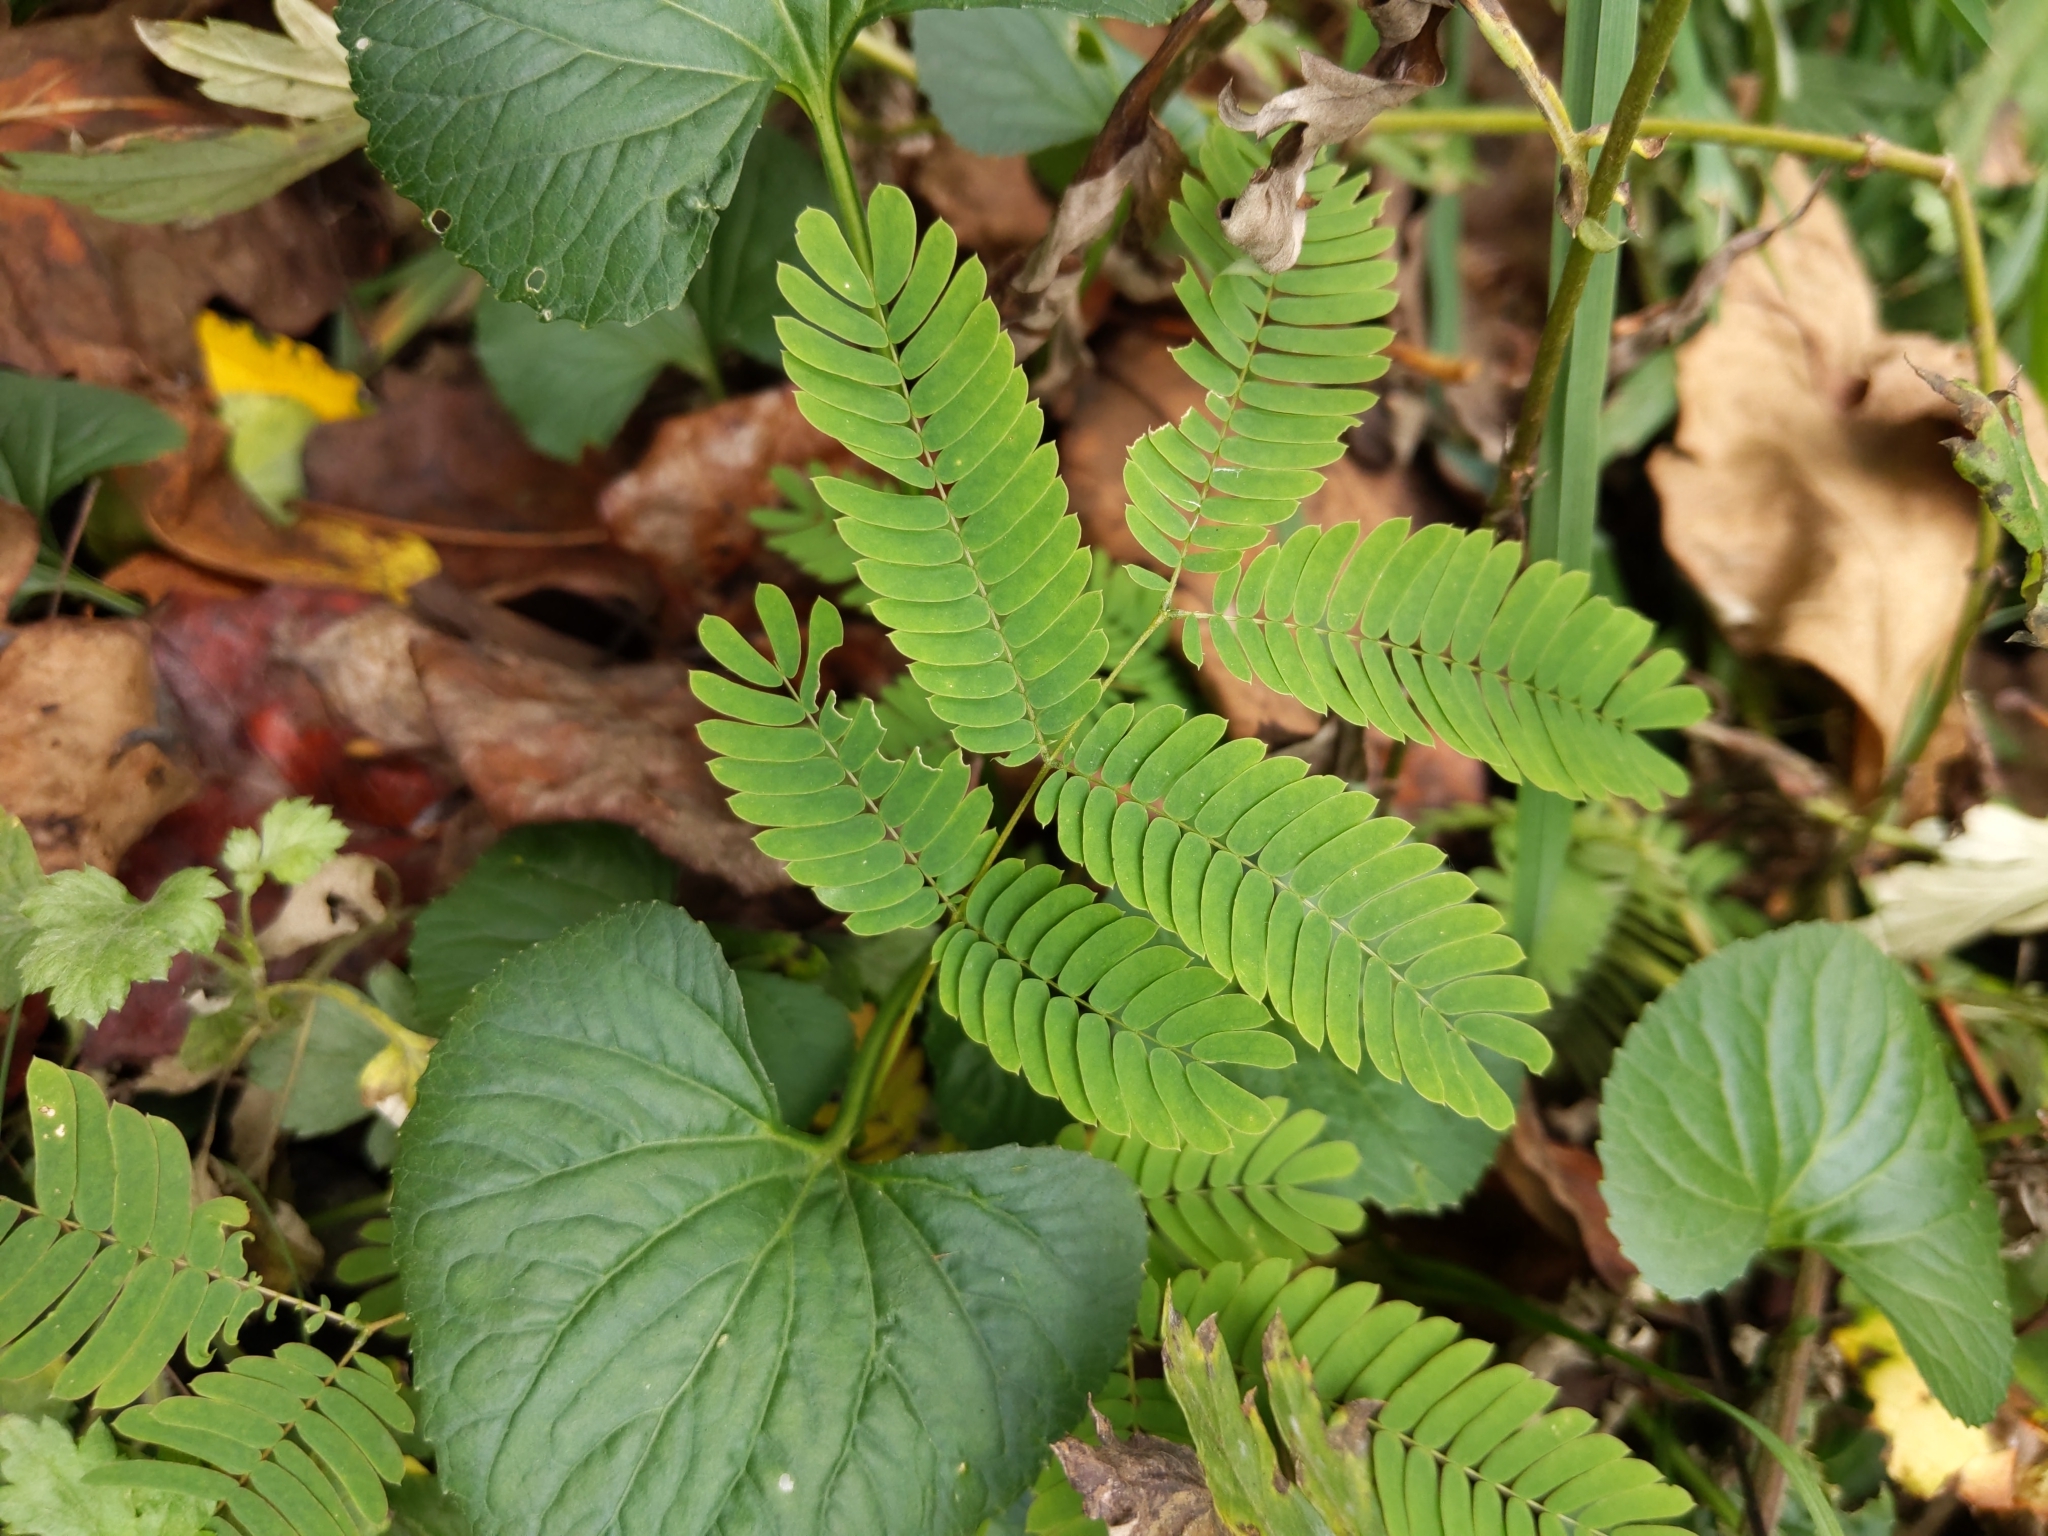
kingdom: Plantae
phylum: Tracheophyta
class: Magnoliopsida
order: Fabales
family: Fabaceae
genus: Albizia
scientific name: Albizia julibrissin
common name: Silktree
